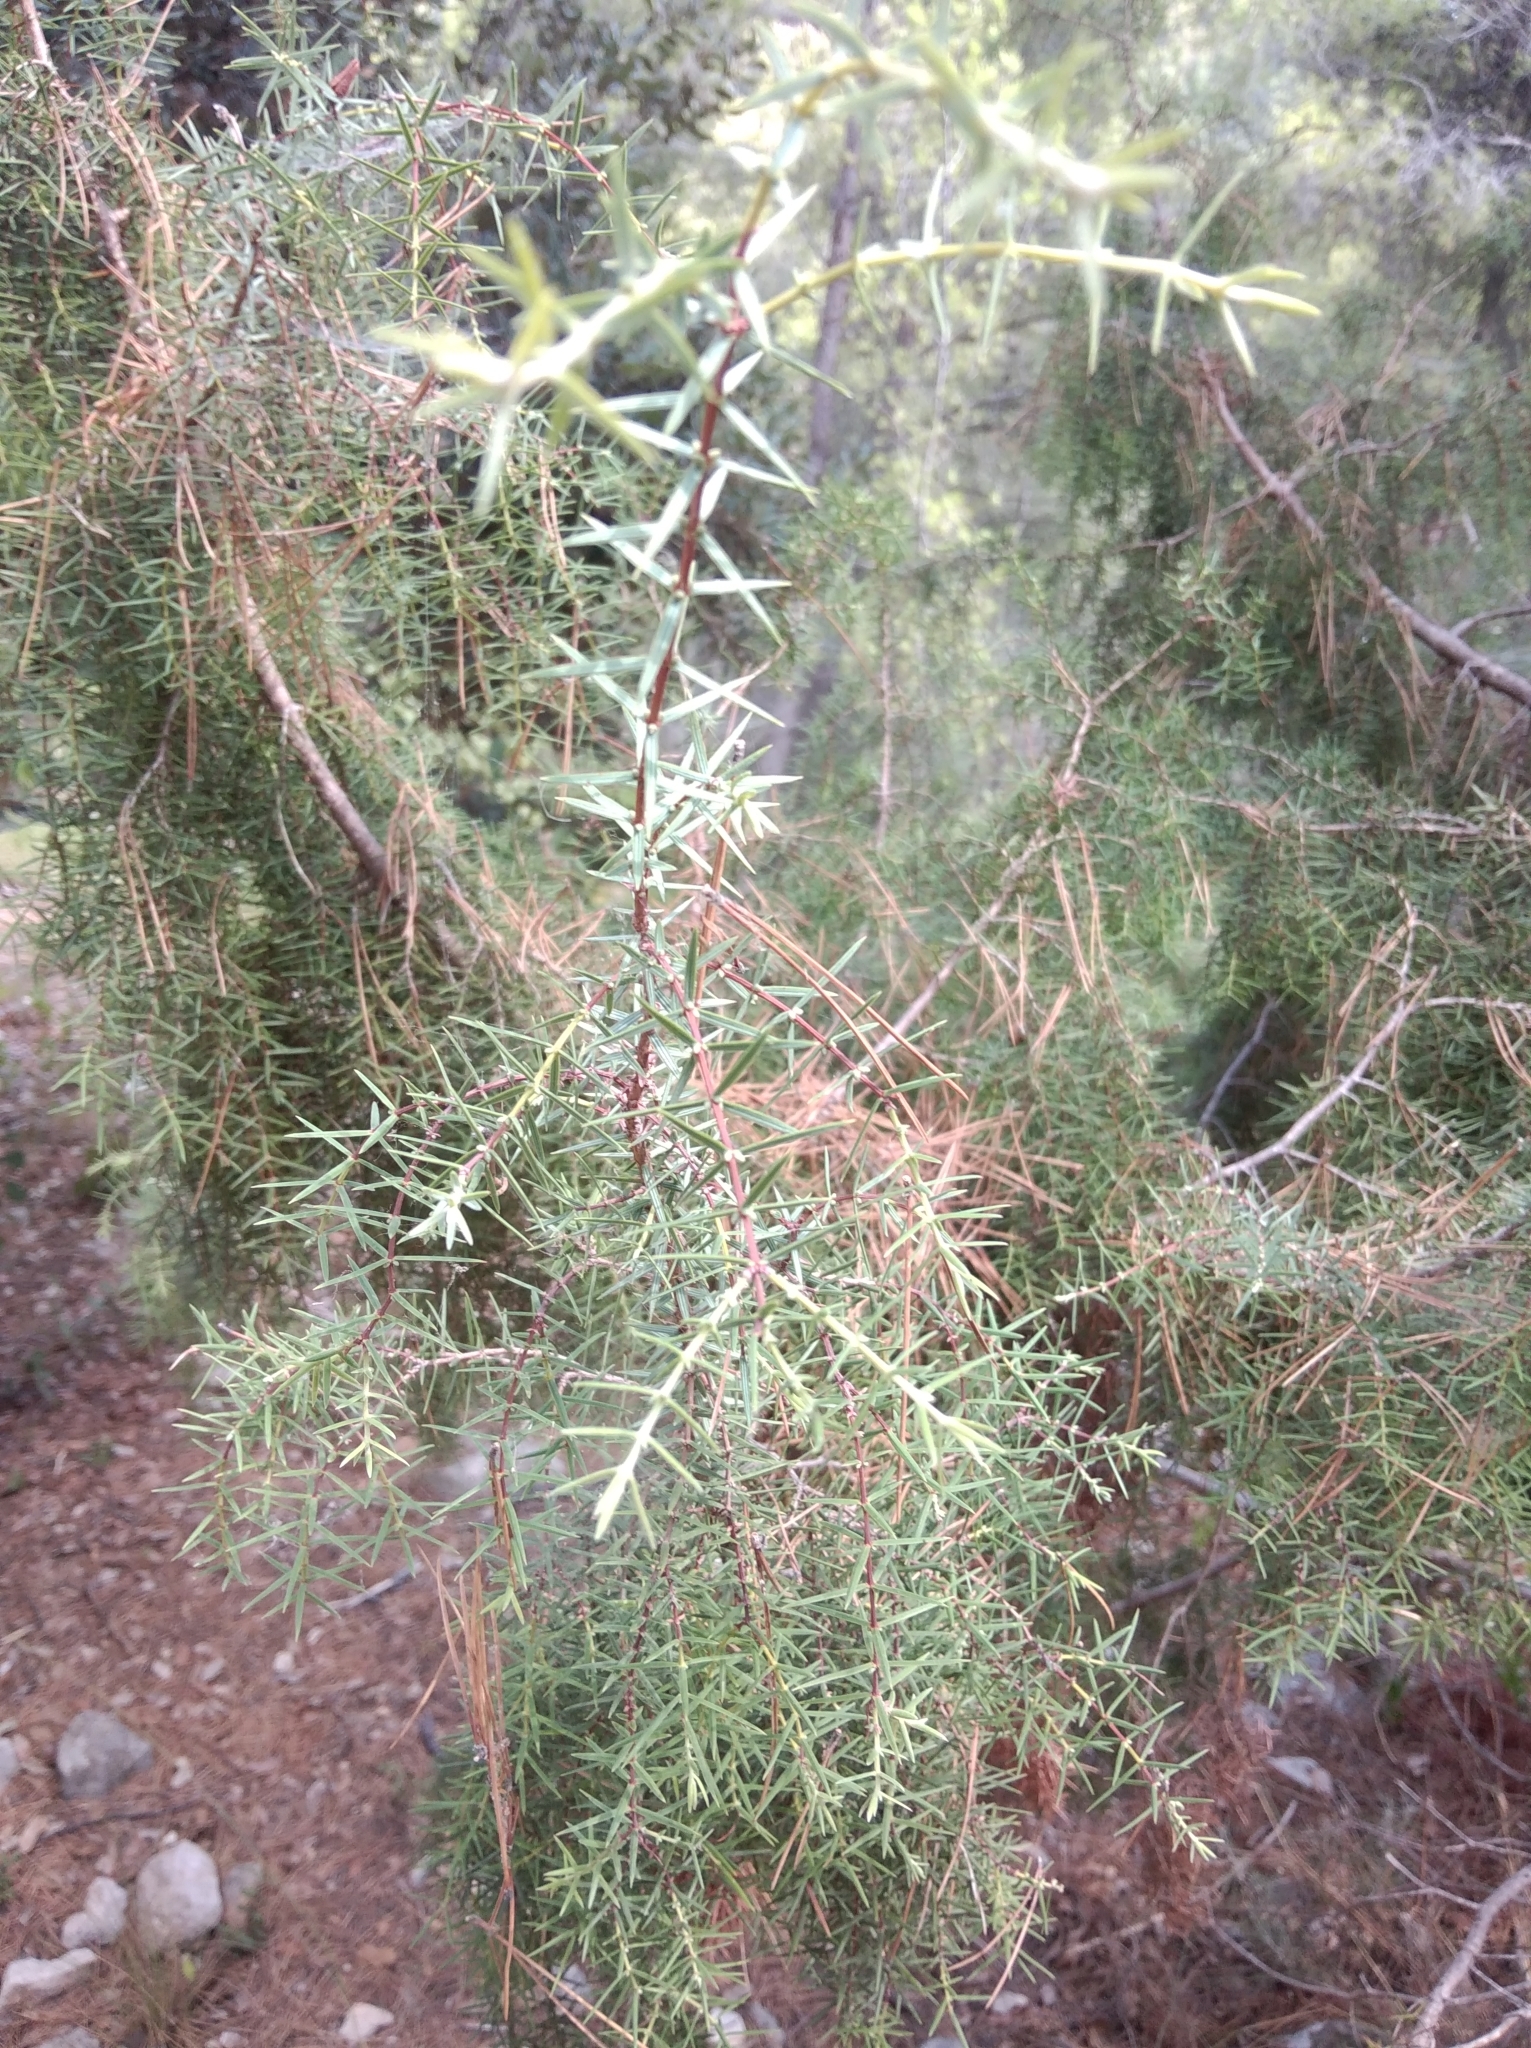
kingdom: Plantae
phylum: Tracheophyta
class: Pinopsida
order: Pinales
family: Cupressaceae
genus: Juniperus
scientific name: Juniperus oxycedrus
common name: Prickly juniper
